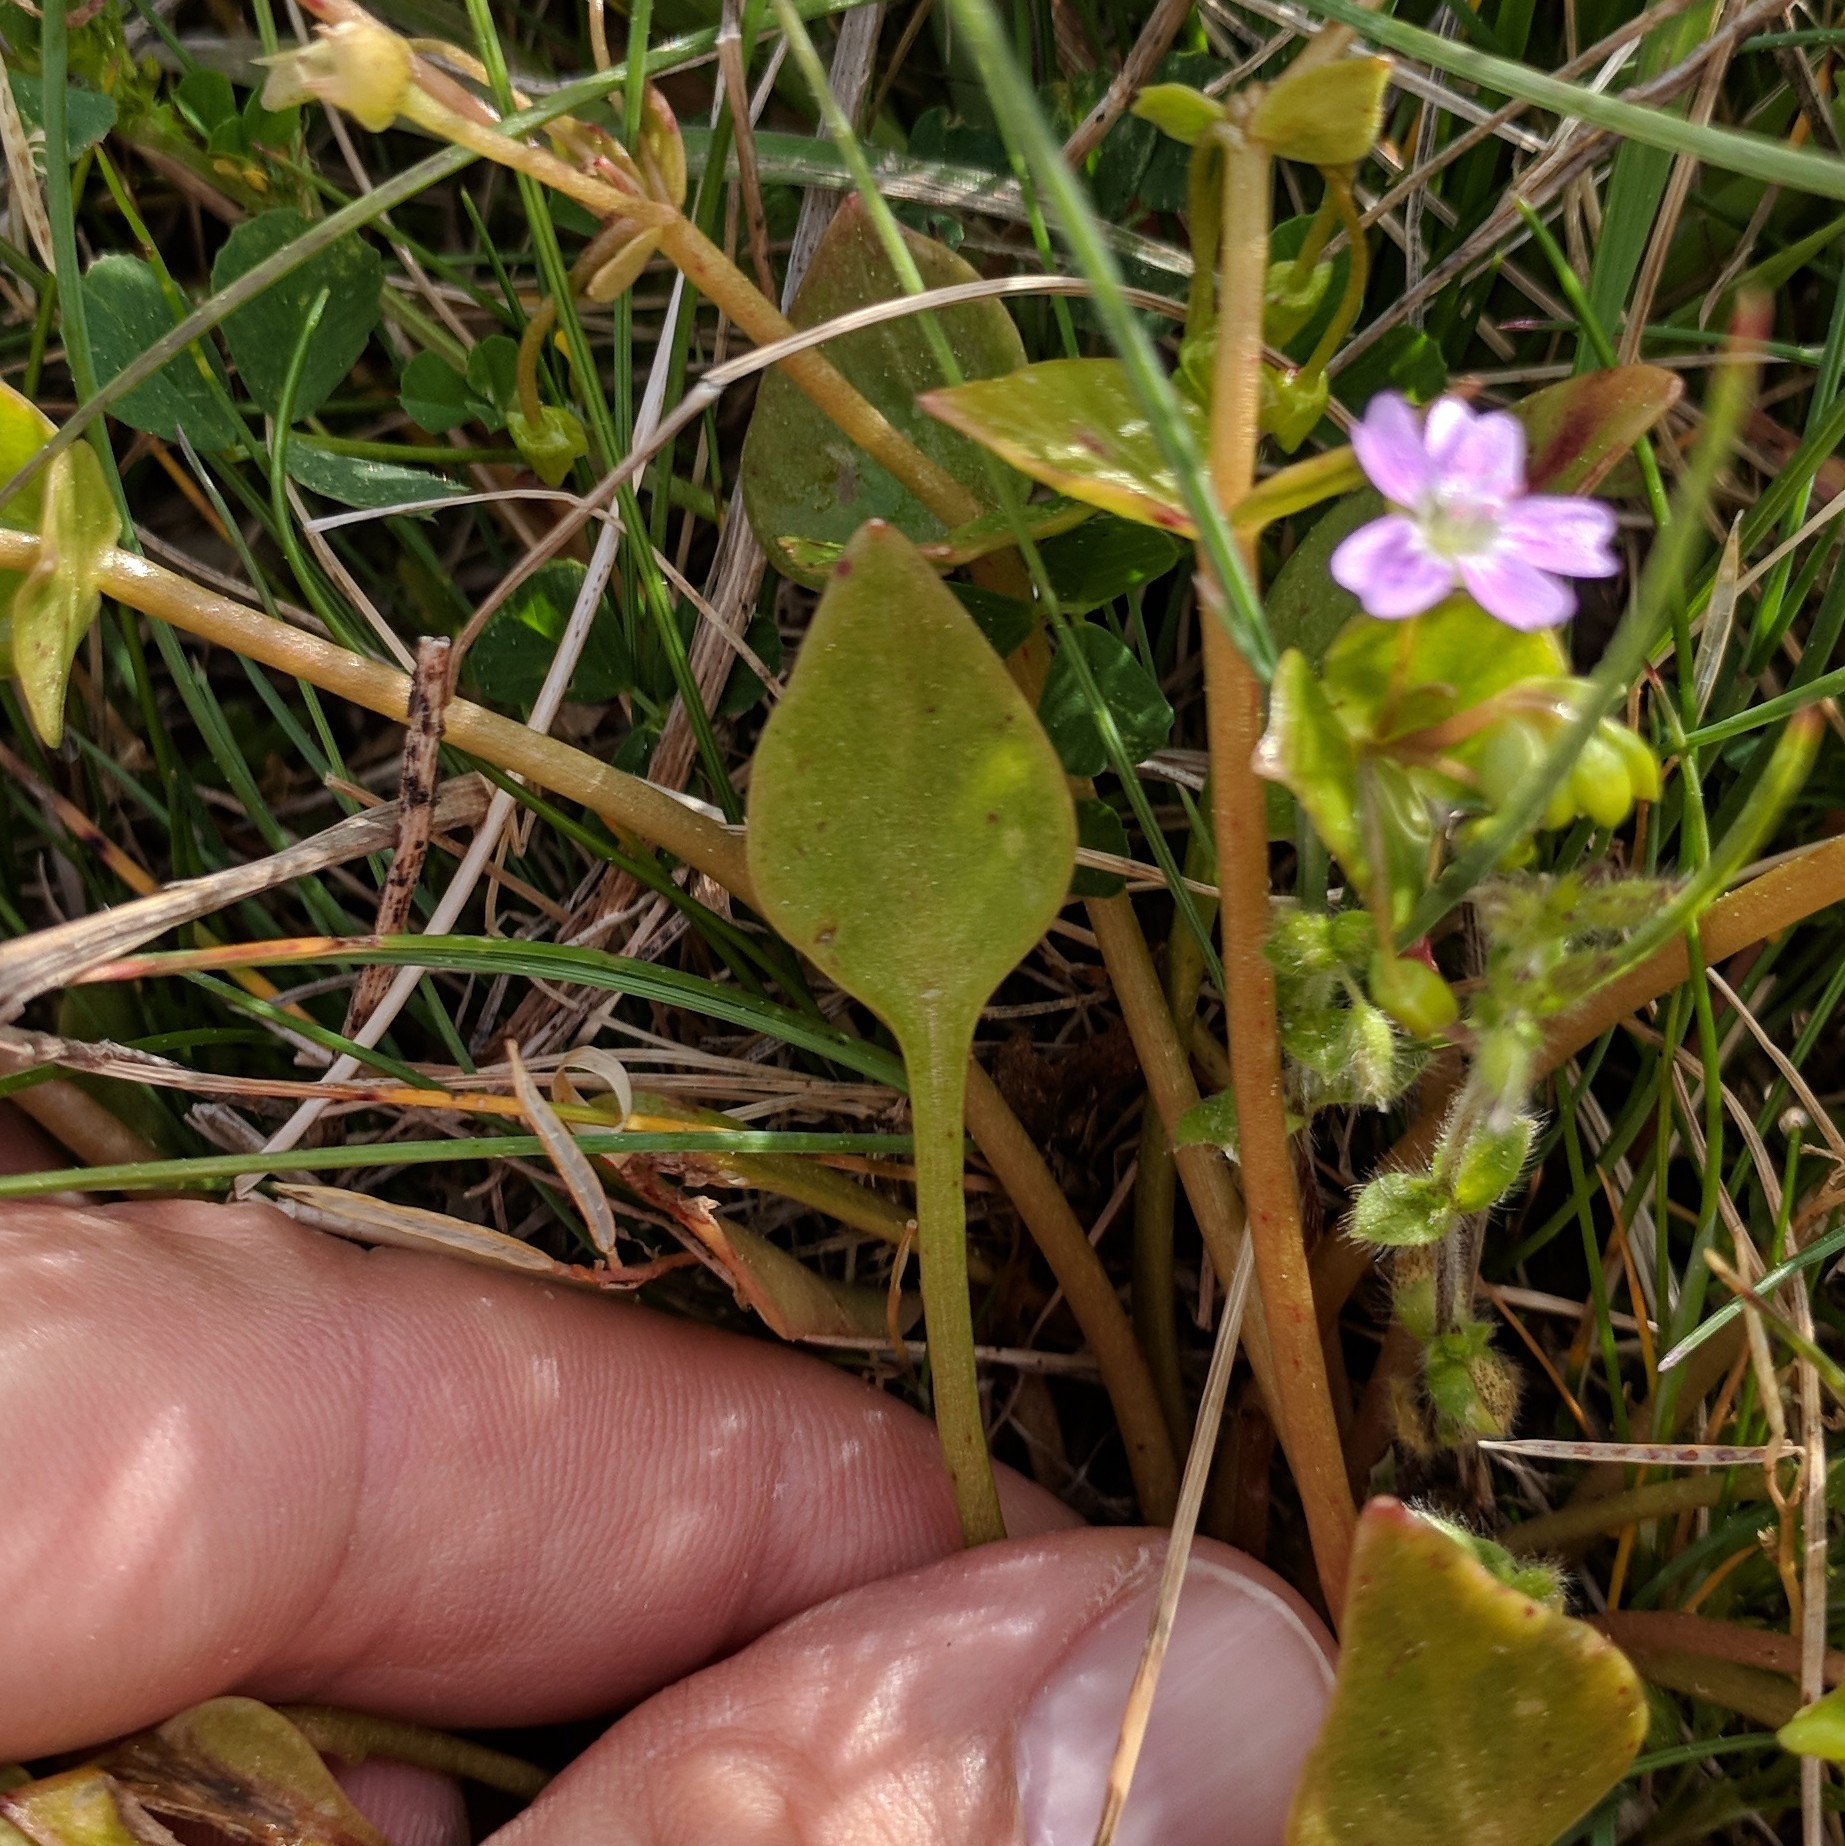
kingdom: Plantae
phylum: Tracheophyta
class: Magnoliopsida
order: Caryophyllales
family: Montiaceae
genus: Claytonia
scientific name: Claytonia sibirica
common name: Pink purslane
